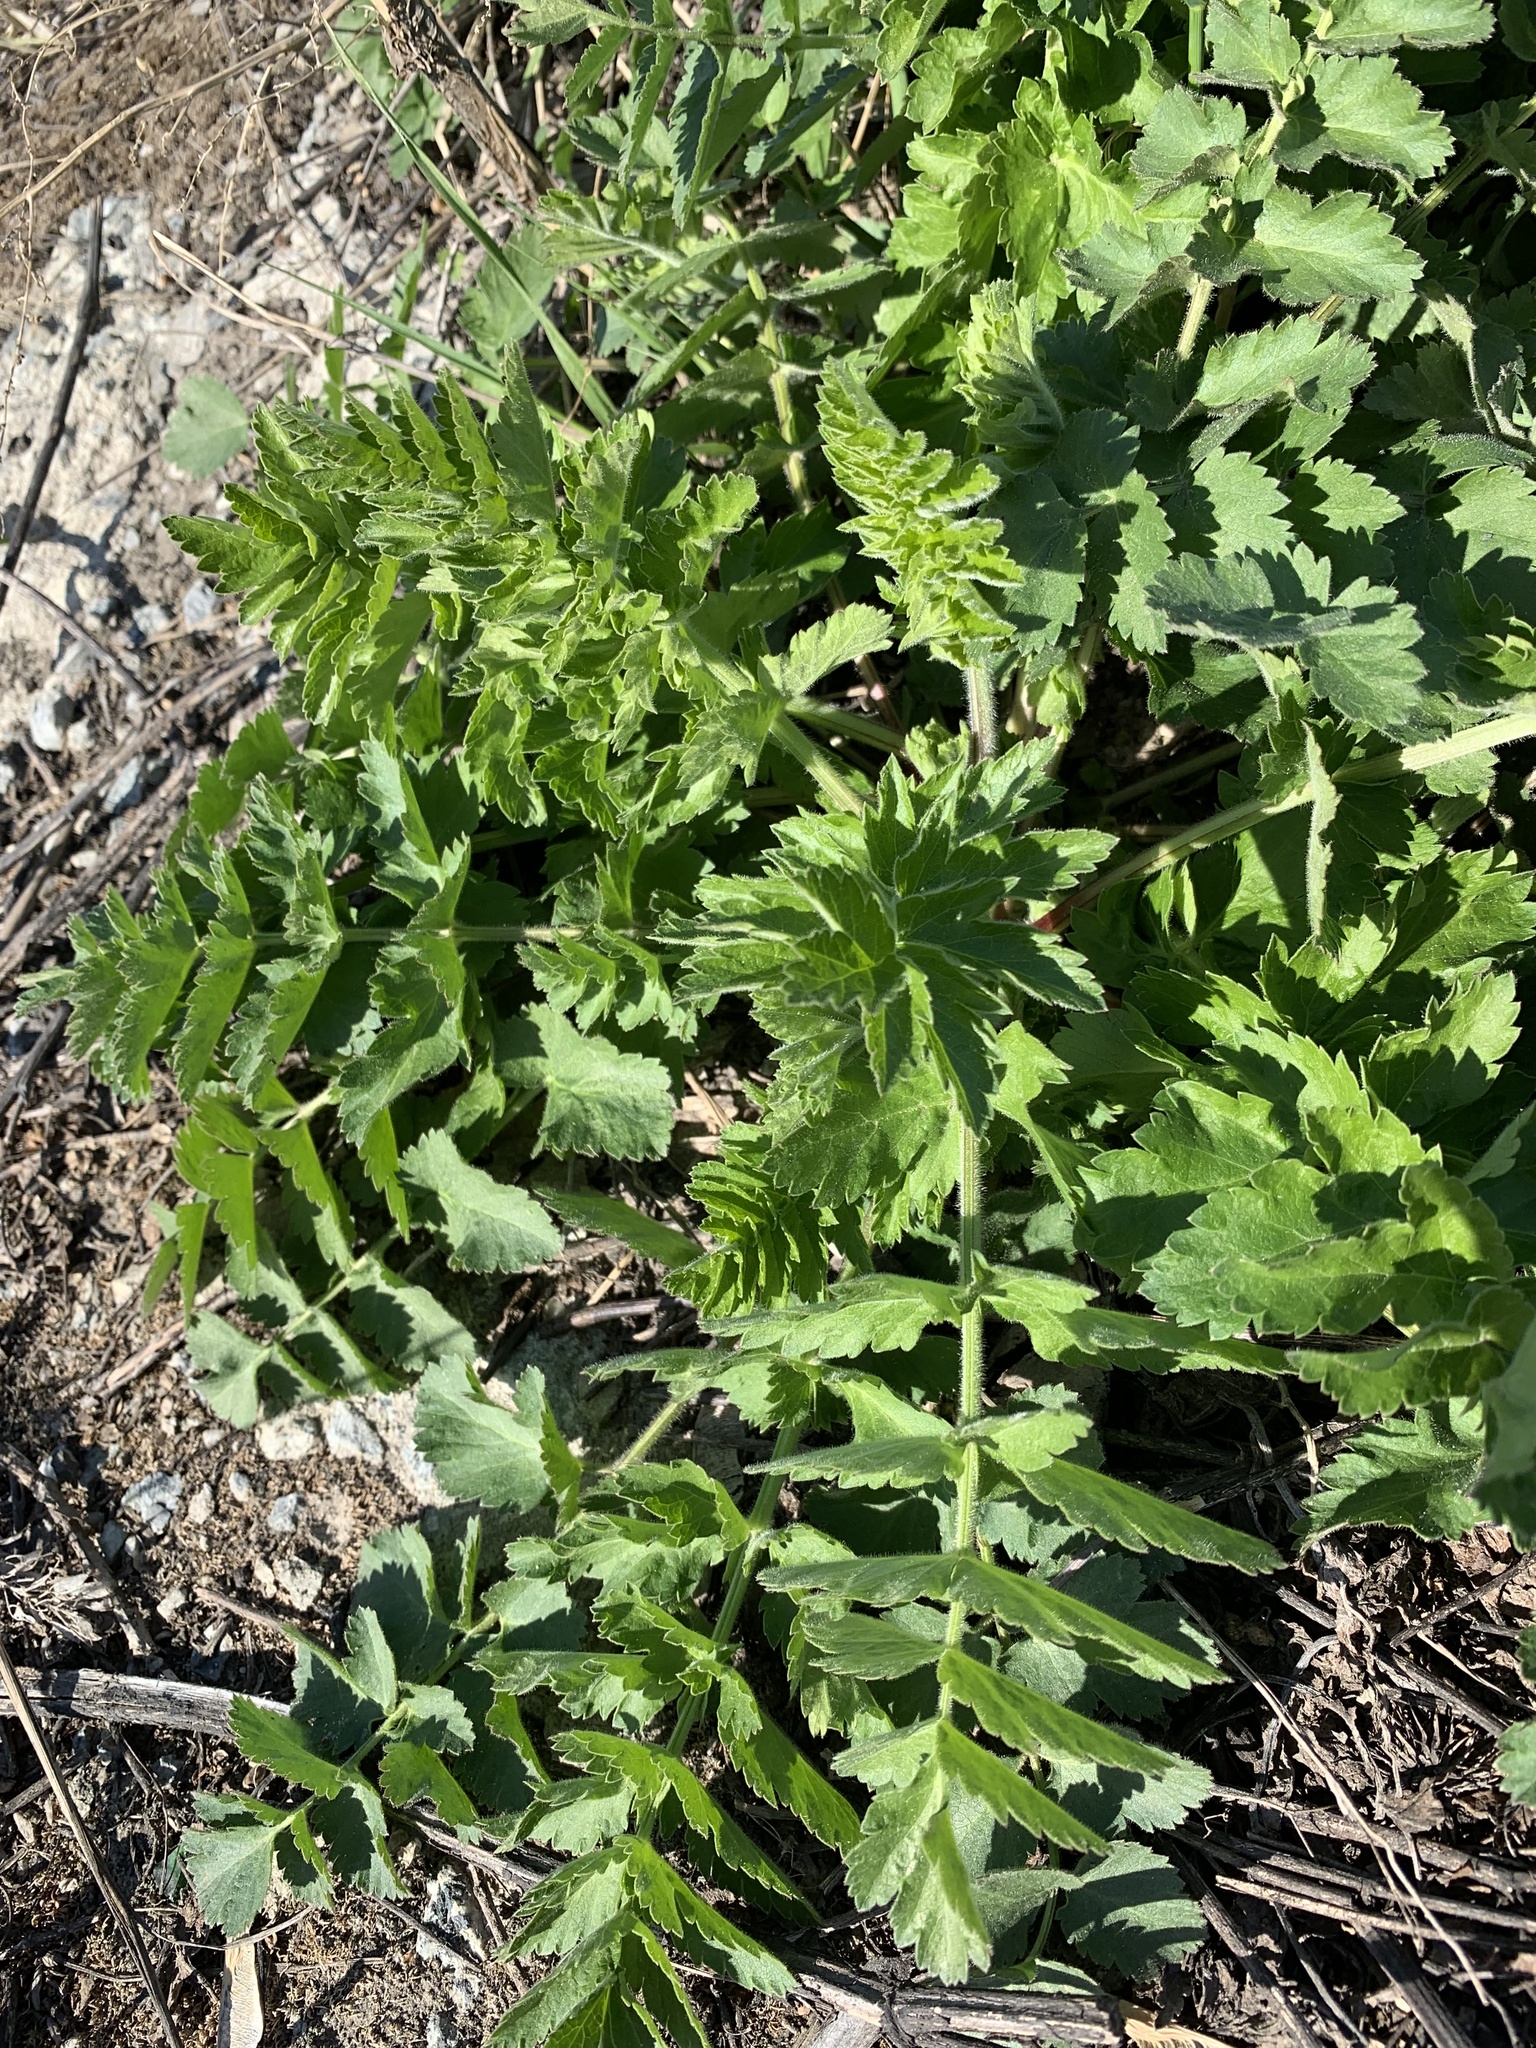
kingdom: Plantae
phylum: Tracheophyta
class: Magnoliopsida
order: Apiales
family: Apiaceae
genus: Pastinaca
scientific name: Pastinaca sativa
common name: Wild parsnip
